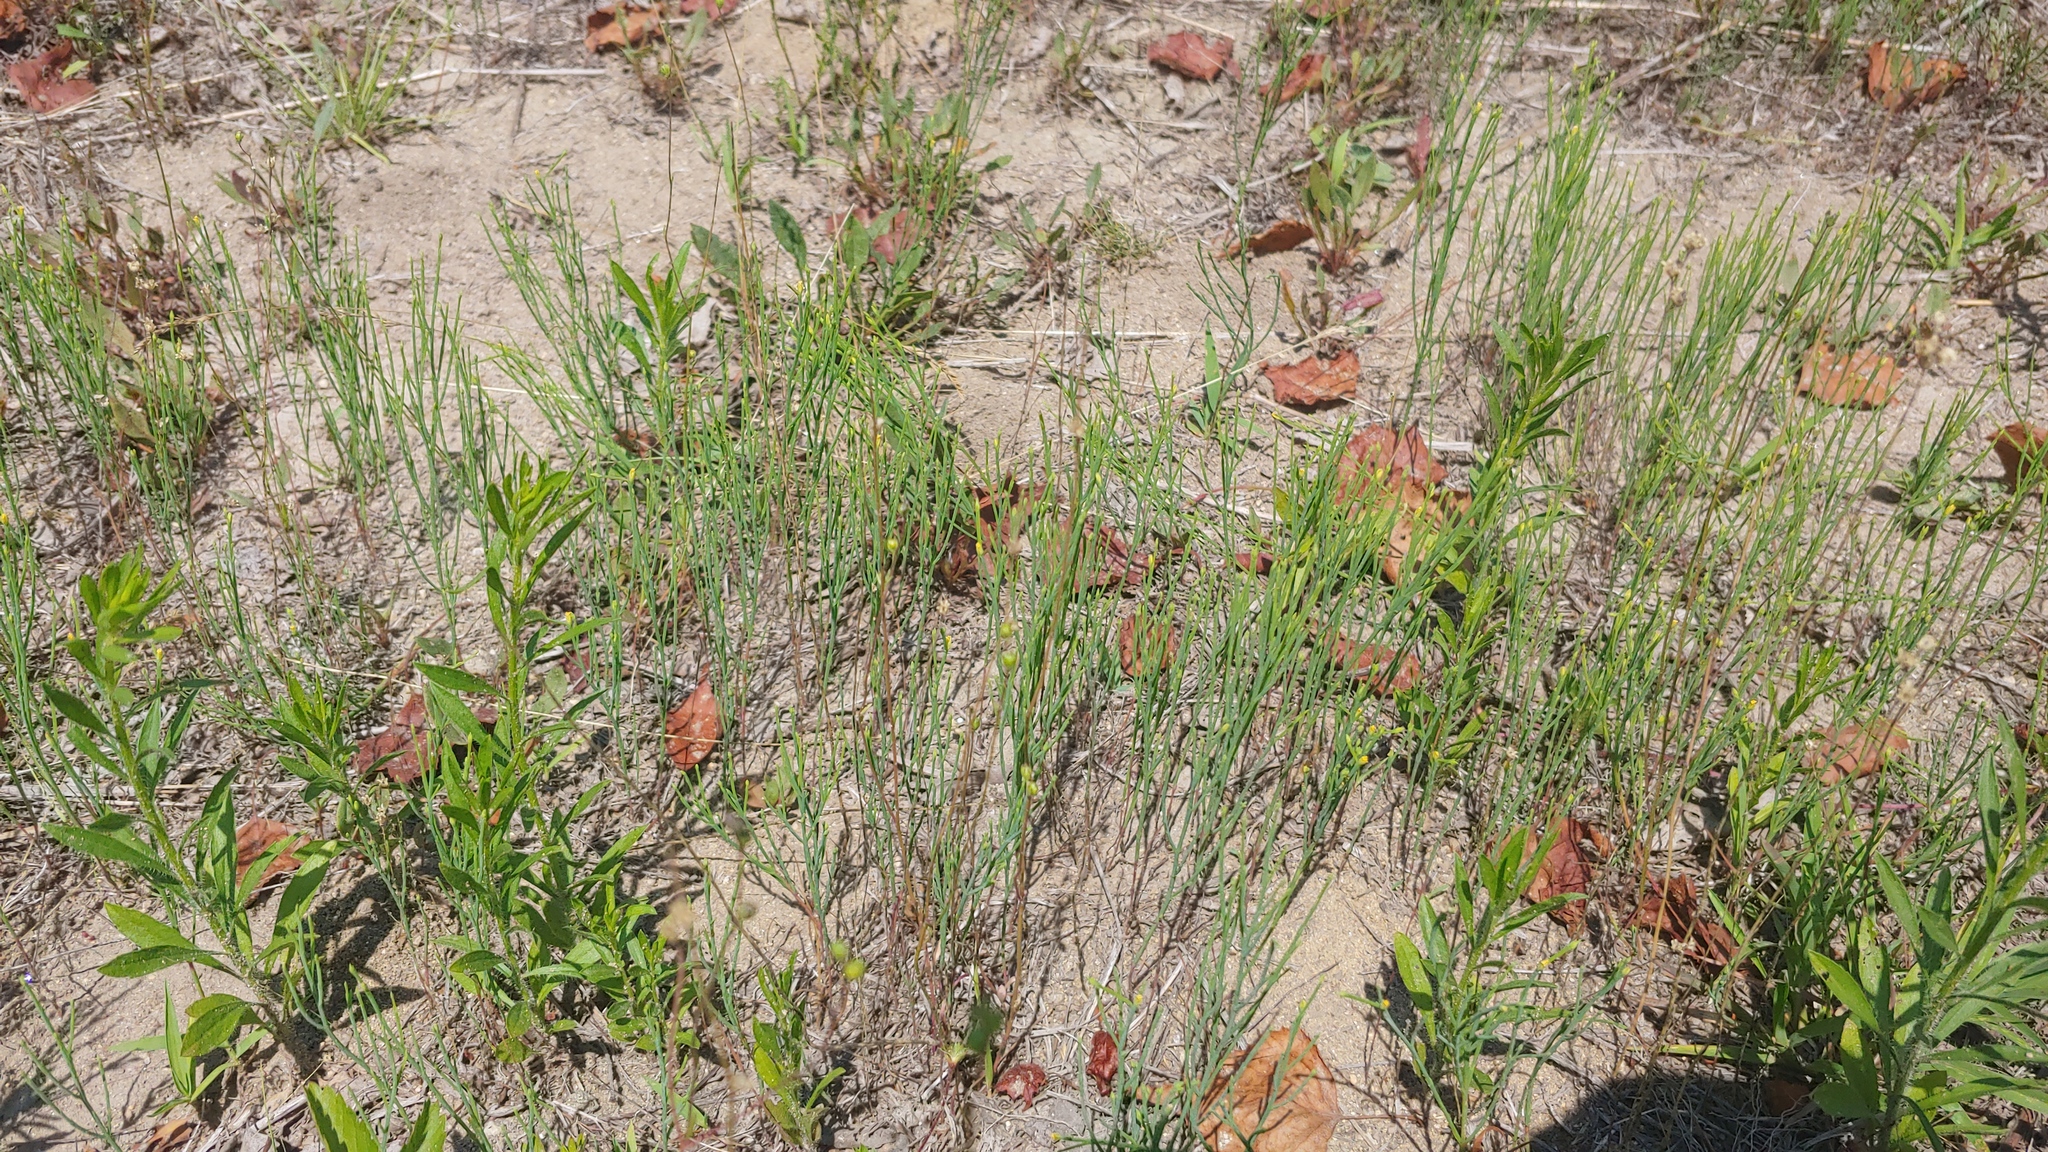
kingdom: Plantae
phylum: Tracheophyta
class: Magnoliopsida
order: Malpighiales
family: Hypericaceae
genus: Hypericum
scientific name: Hypericum gentianoides
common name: Gentian-leaved st. john's-wort
